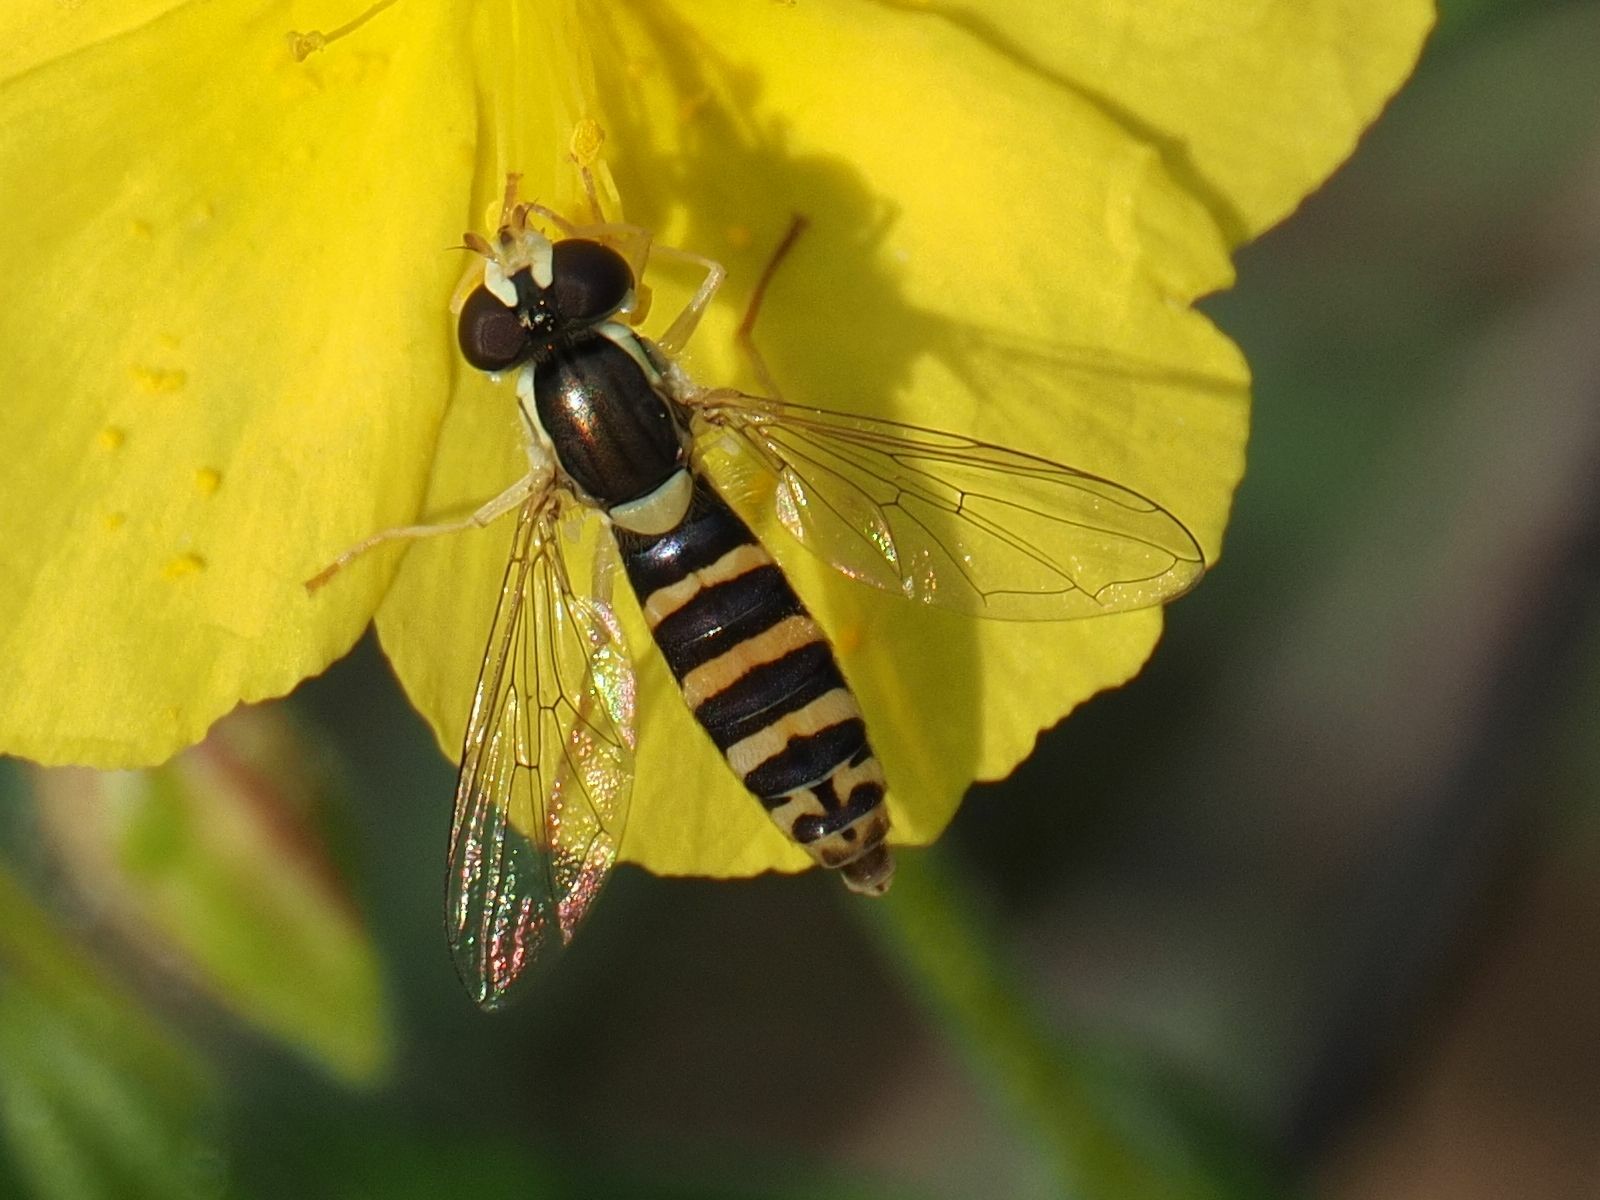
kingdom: Animalia
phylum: Arthropoda
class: Insecta
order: Diptera
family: Syrphidae
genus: Sphaerophoria
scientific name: Sphaerophoria
